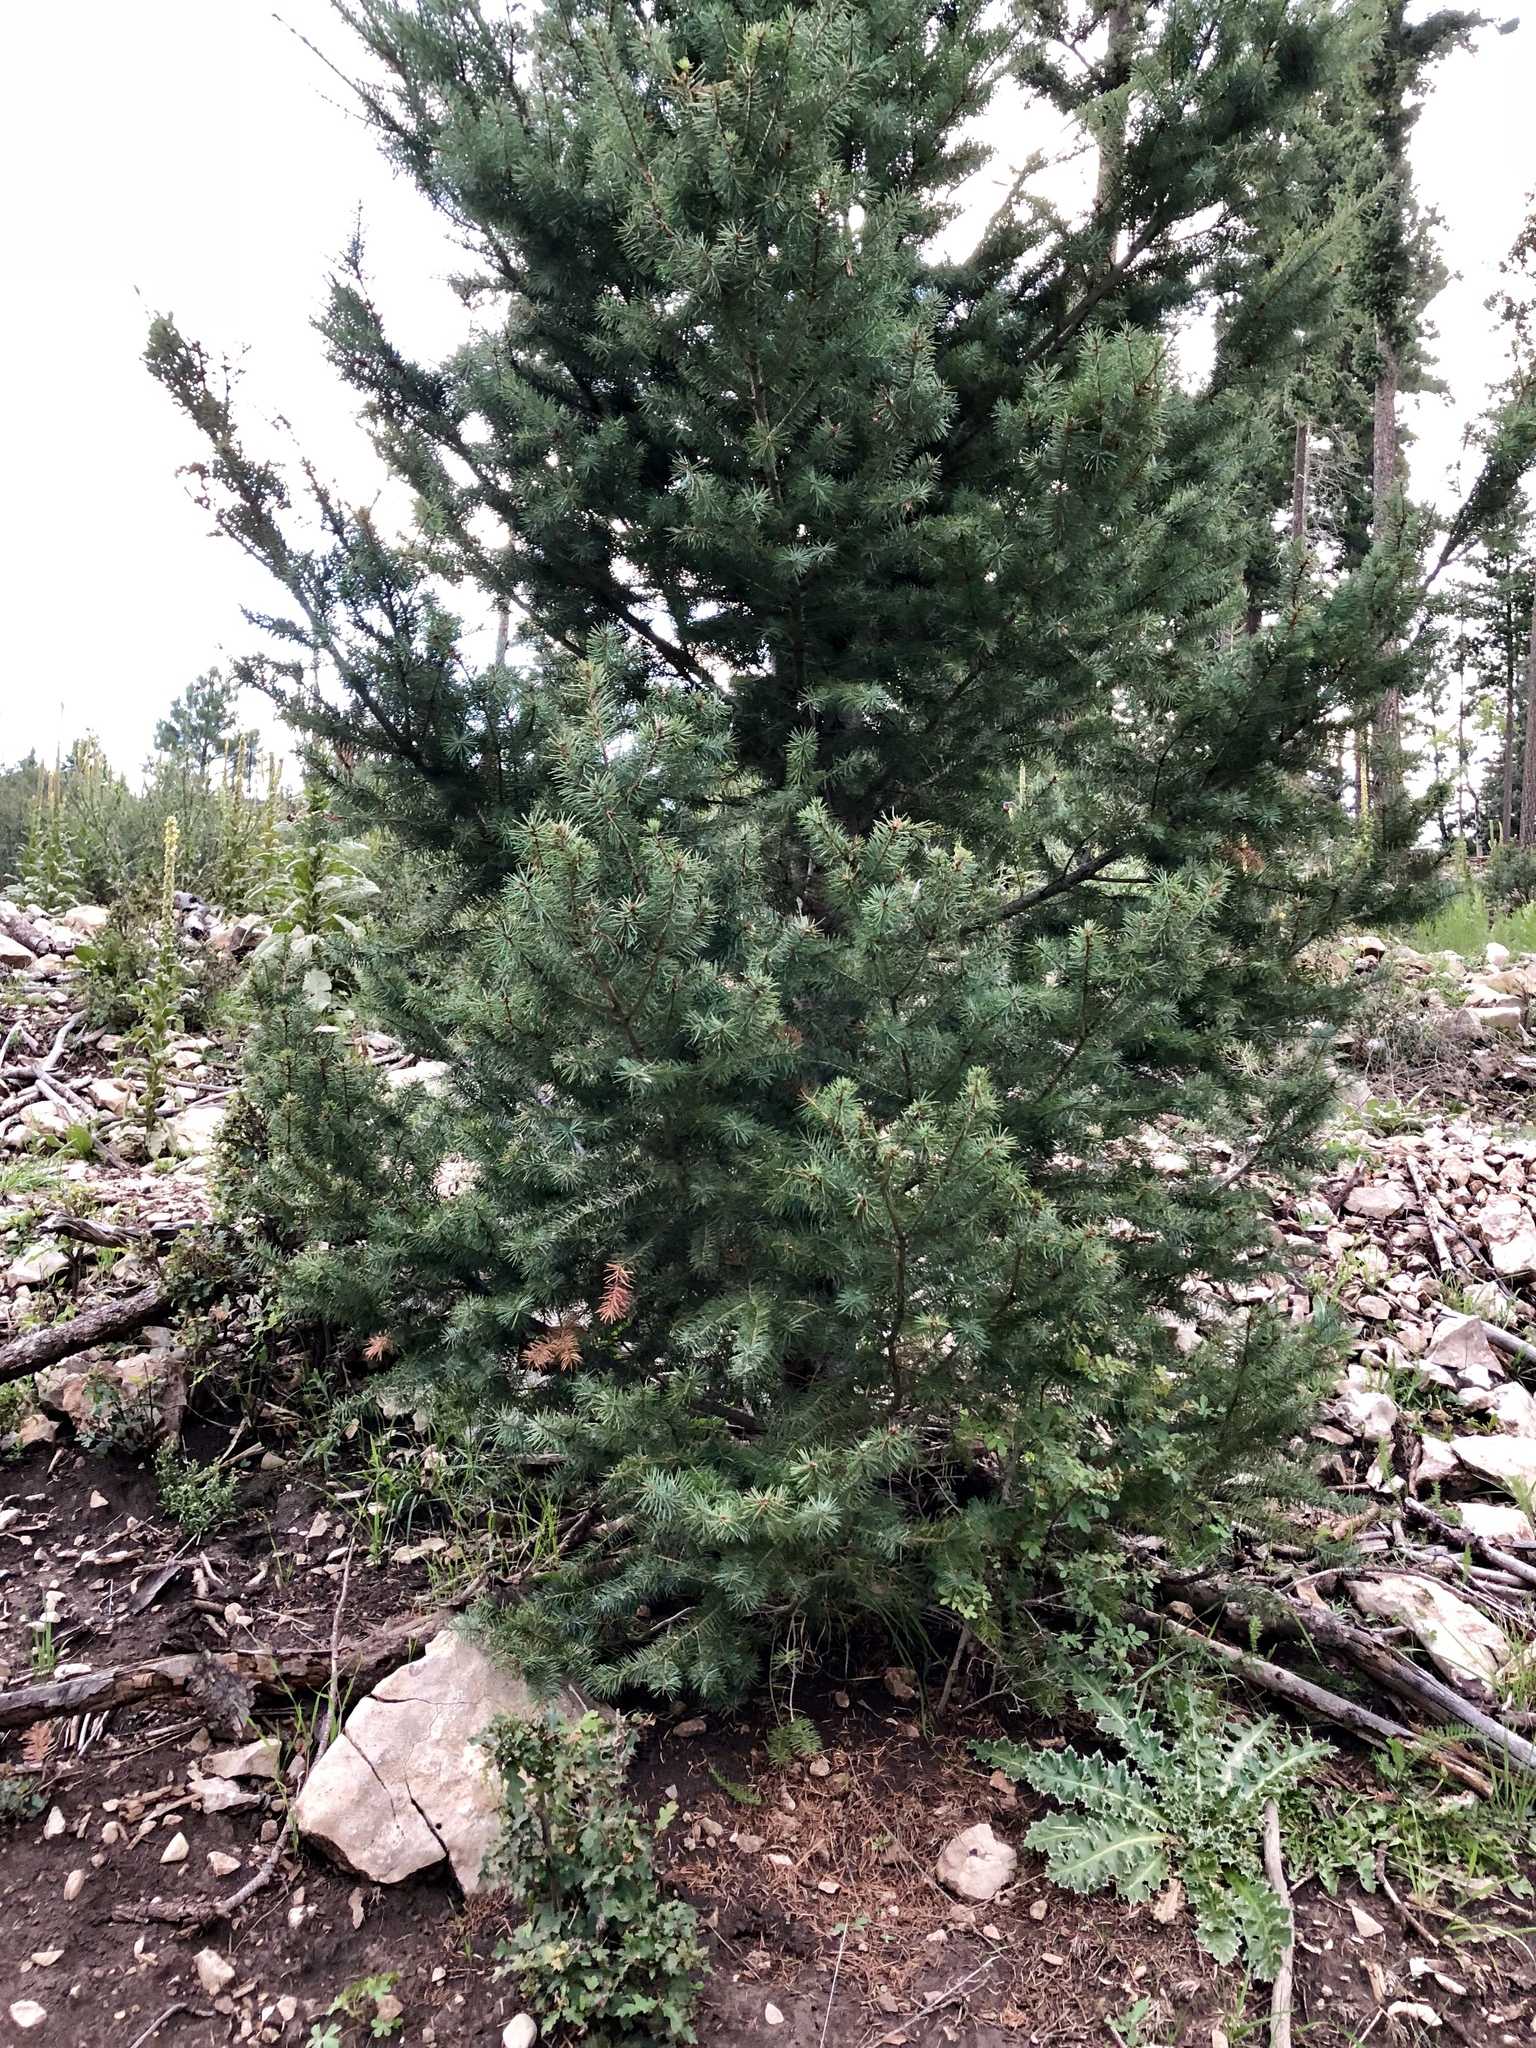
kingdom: Plantae
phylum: Tracheophyta
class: Pinopsida
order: Pinales
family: Pinaceae
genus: Pseudotsuga
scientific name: Pseudotsuga menziesii
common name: Douglas fir
